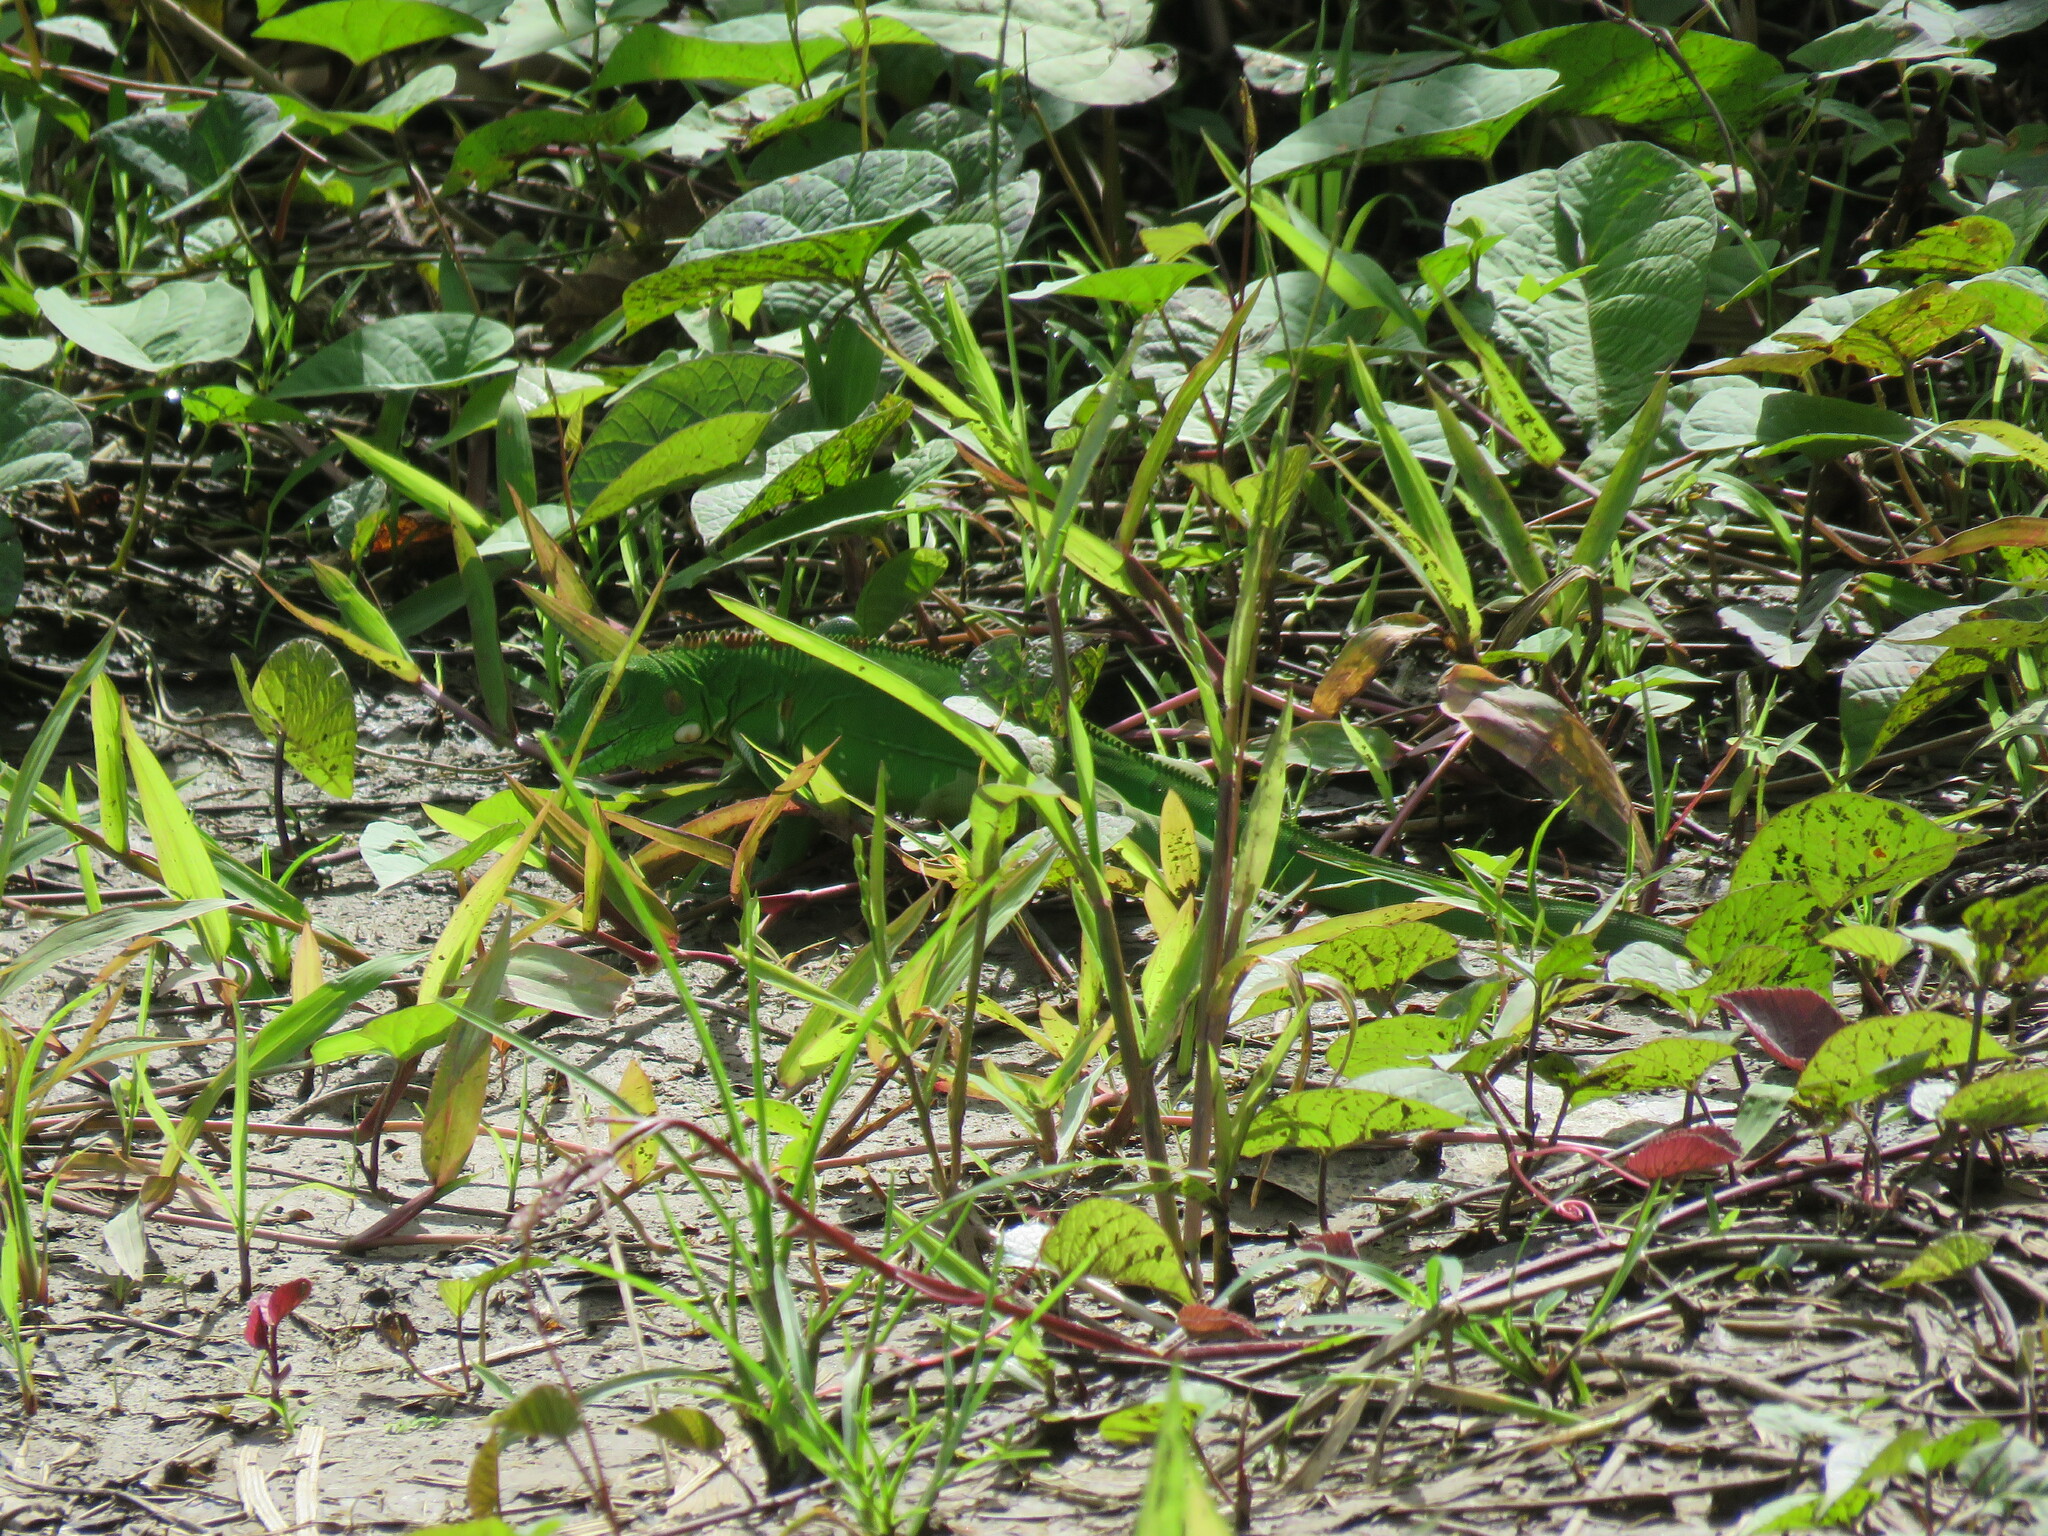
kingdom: Animalia
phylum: Chordata
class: Squamata
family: Iguanidae
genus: Iguana
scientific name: Iguana iguana
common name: Green iguana
